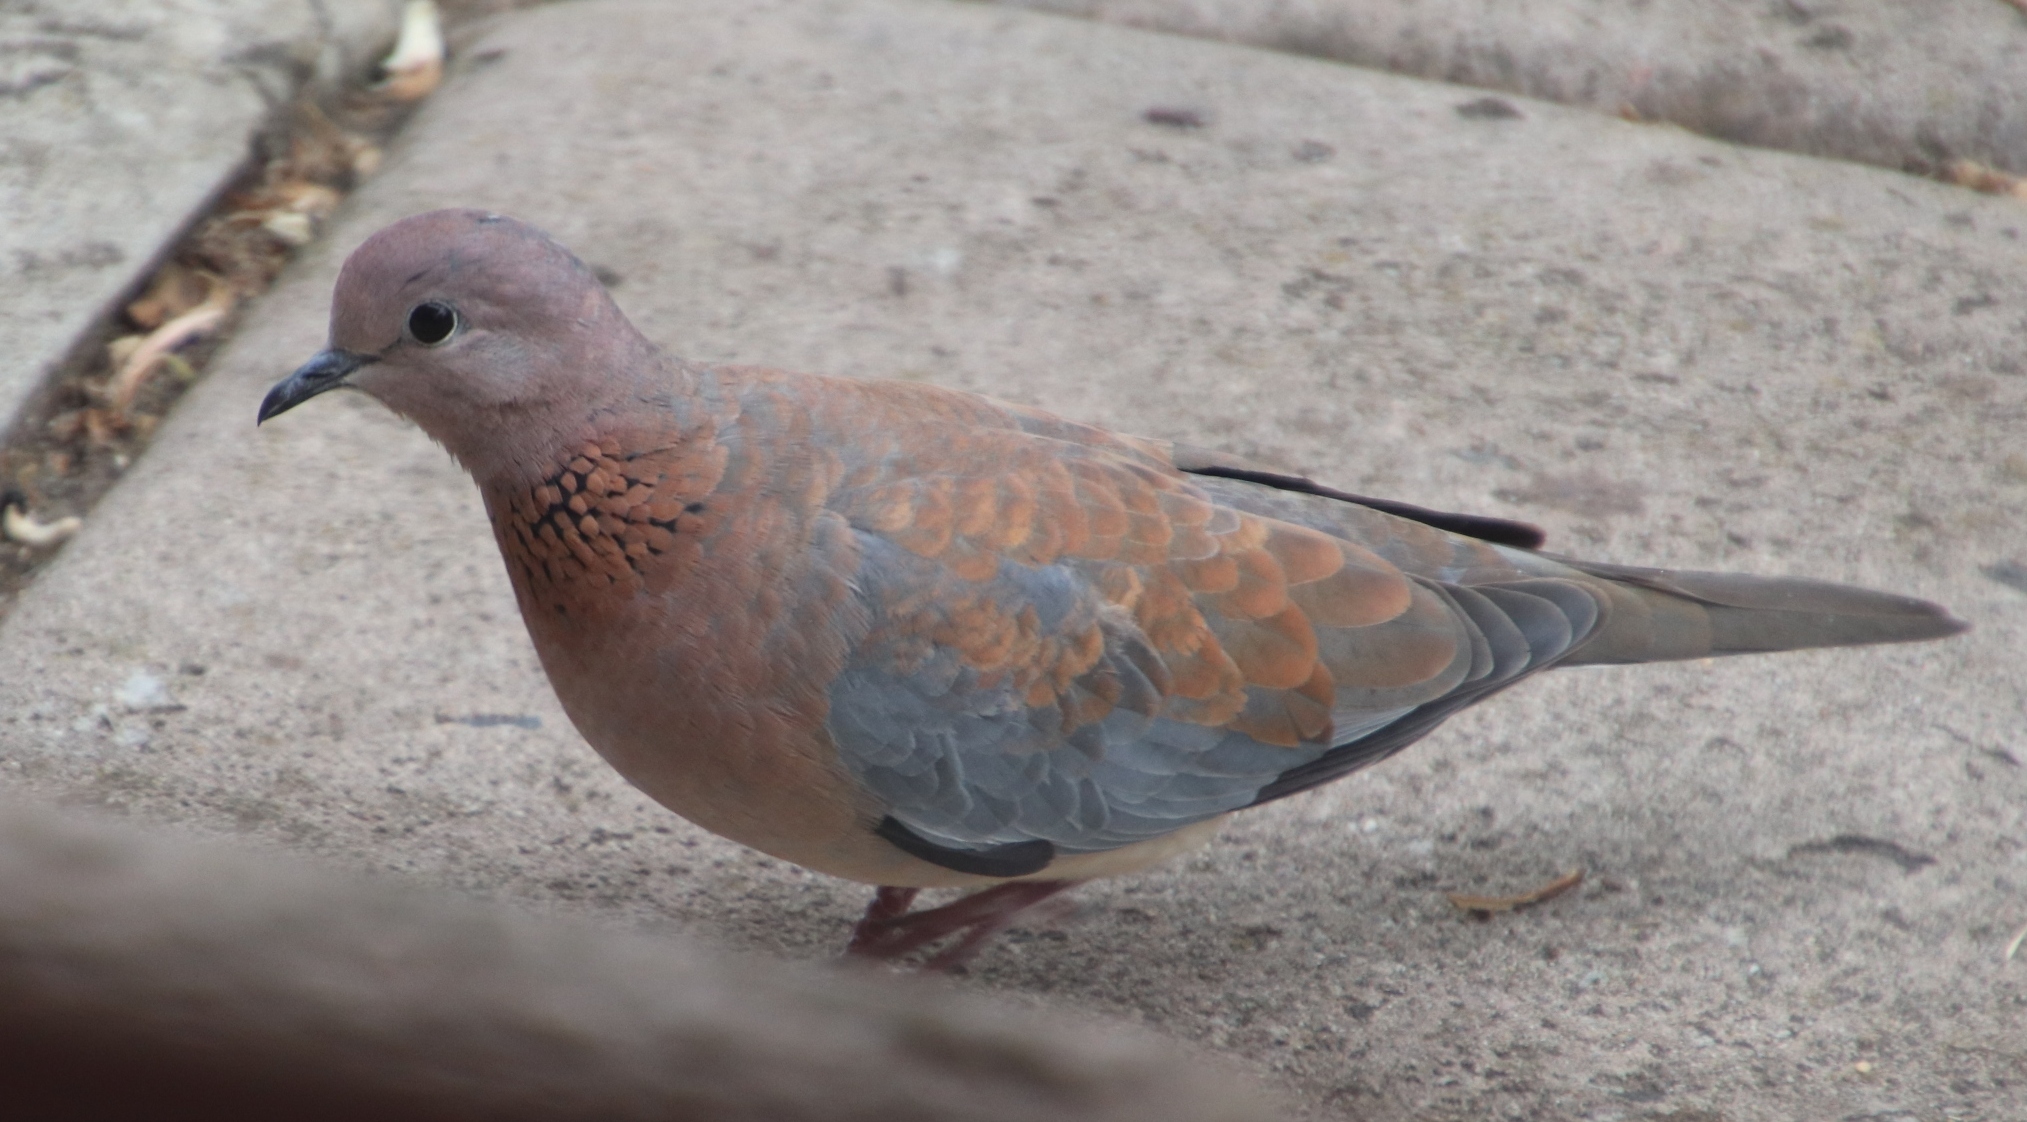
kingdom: Animalia
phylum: Chordata
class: Aves
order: Columbiformes
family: Columbidae
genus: Spilopelia
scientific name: Spilopelia senegalensis
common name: Laughing dove
